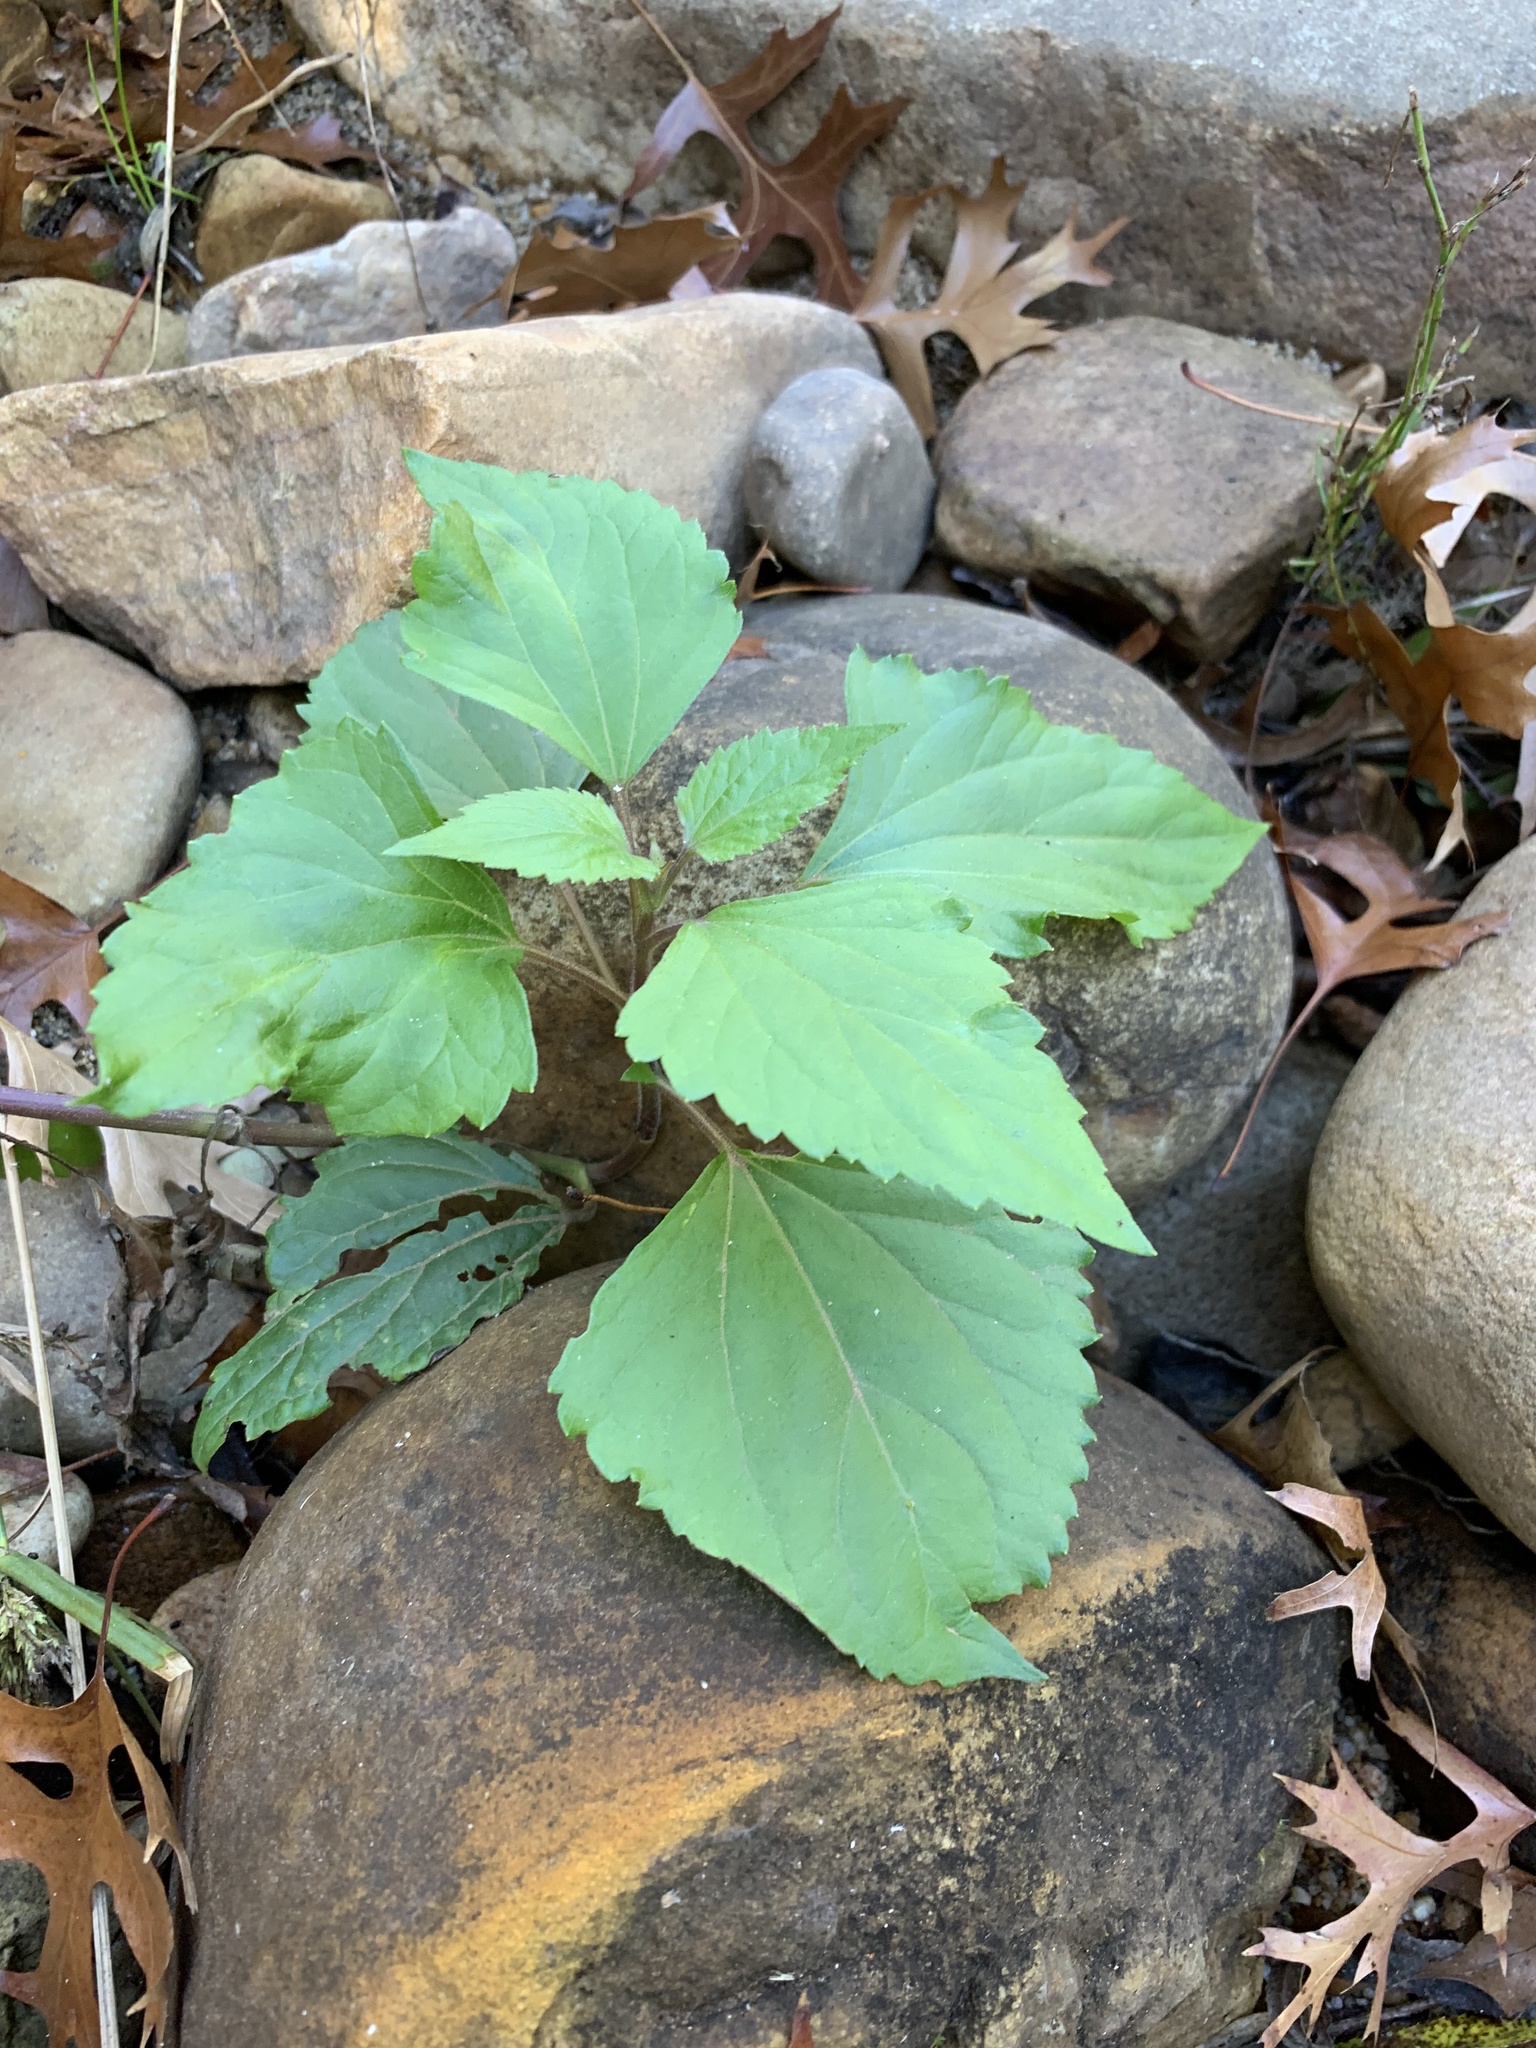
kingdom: Plantae
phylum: Tracheophyta
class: Magnoliopsida
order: Asterales
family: Asteraceae
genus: Ageratina
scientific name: Ageratina adenophora
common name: Sticky snakeroot
